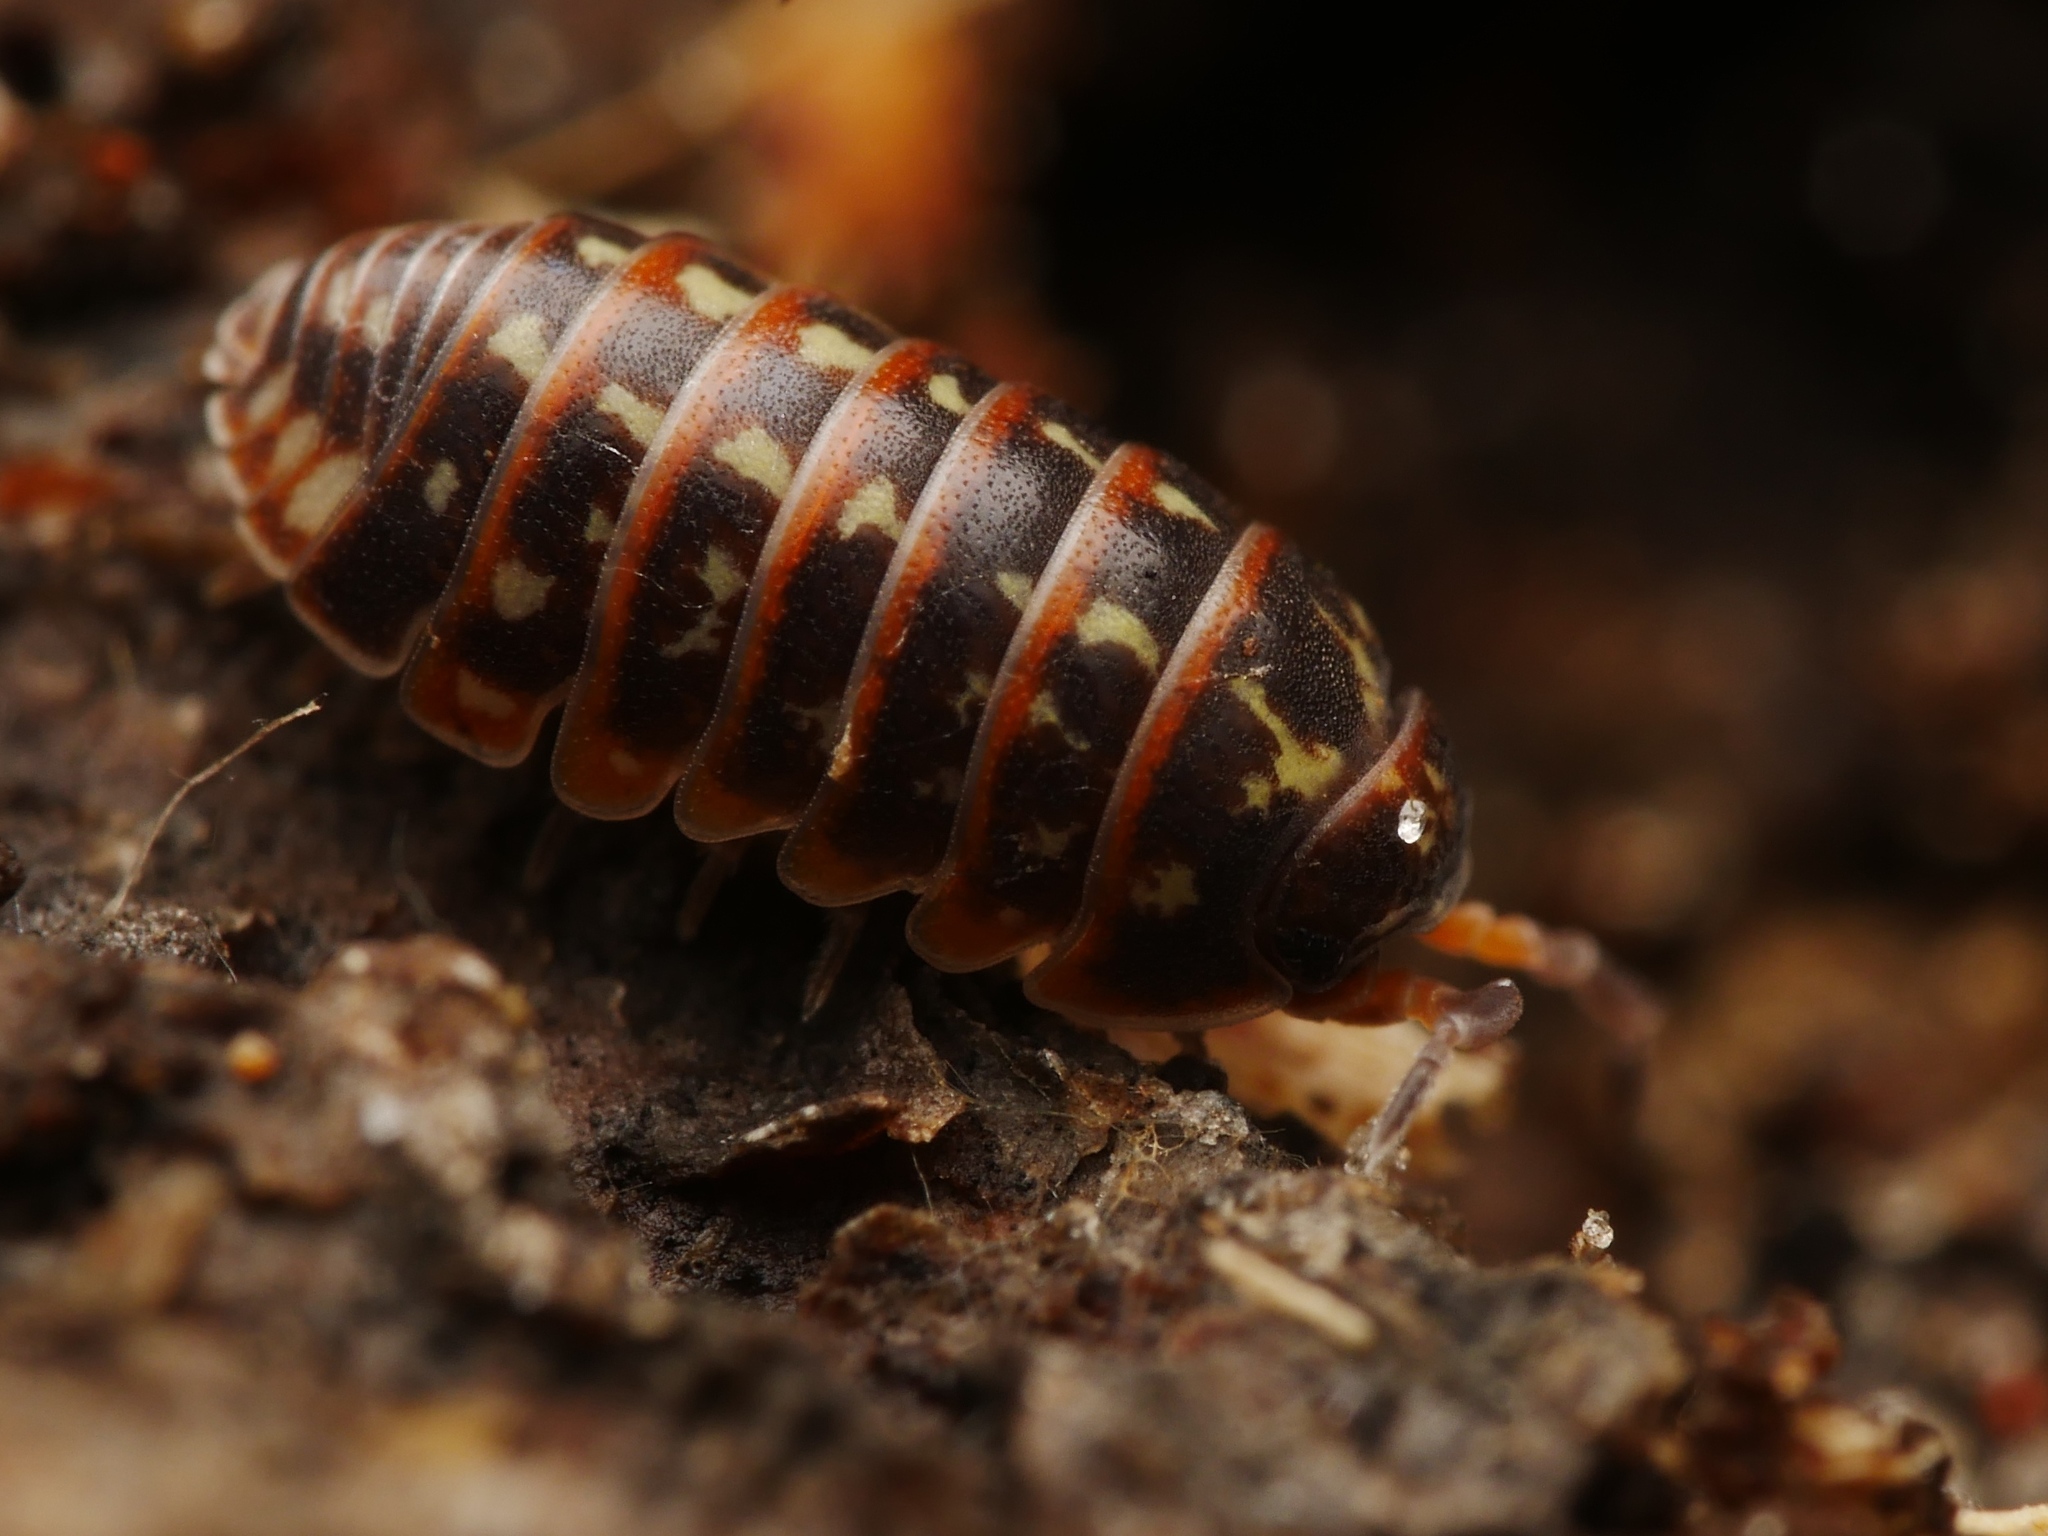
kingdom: Animalia
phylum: Arthropoda
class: Malacostraca
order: Isopoda
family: Armadillidiidae
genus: Armadillidium
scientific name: Armadillidium pulchellum
